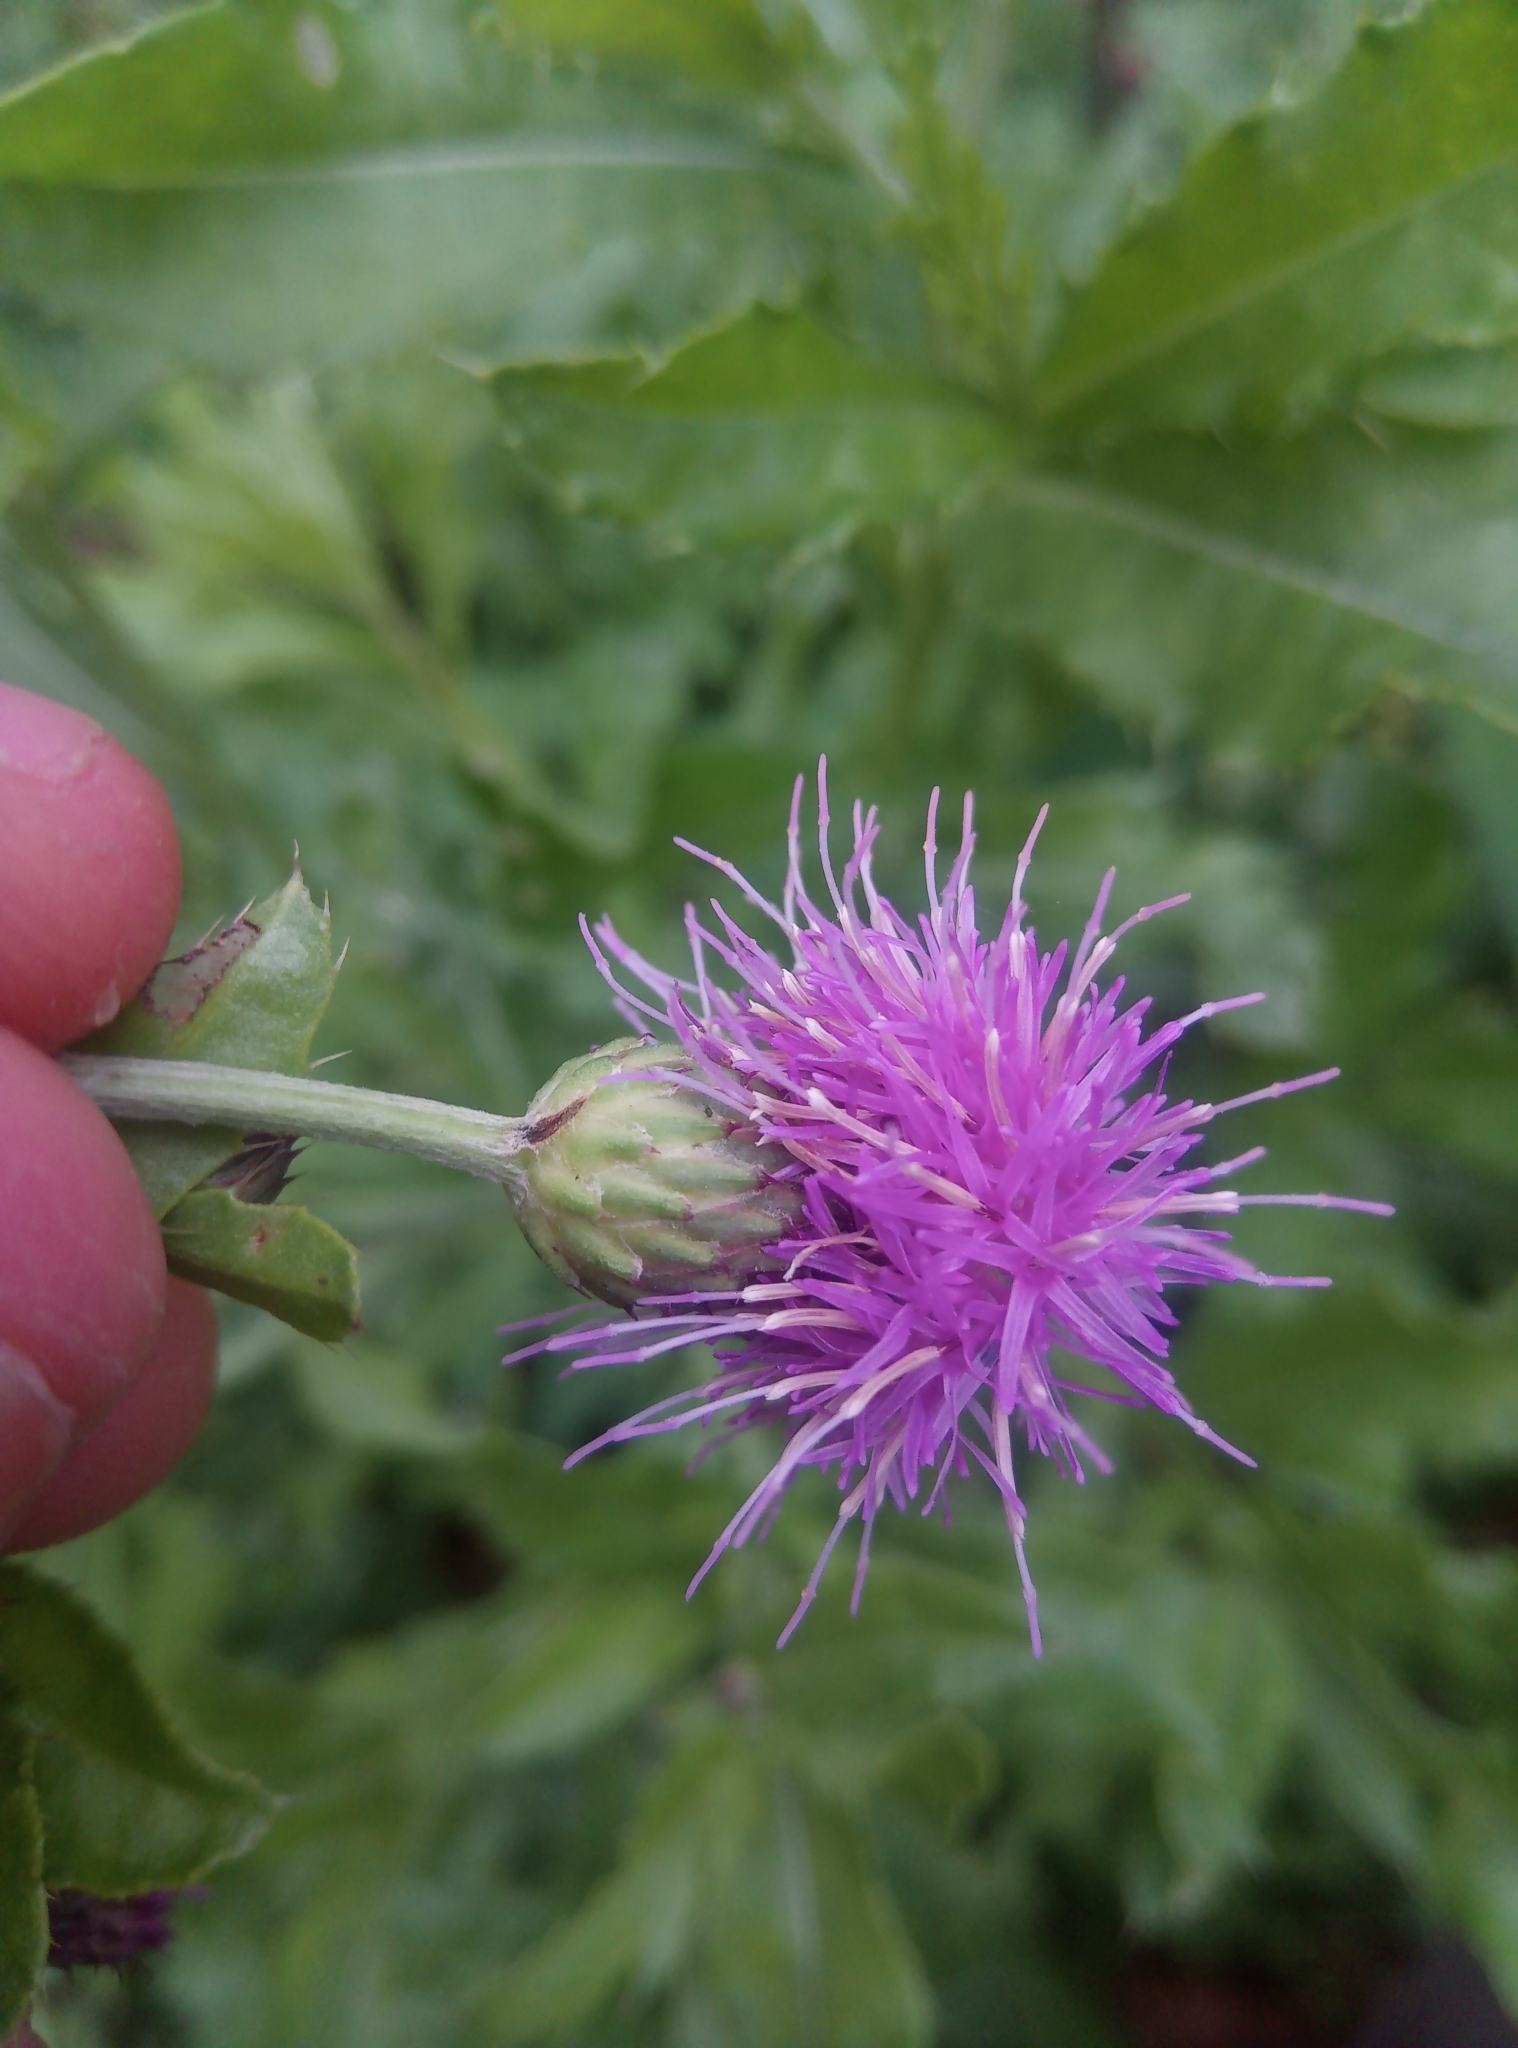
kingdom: Plantae
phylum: Tracheophyta
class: Magnoliopsida
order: Asterales
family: Asteraceae
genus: Cirsium
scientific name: Cirsium arvense
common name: Creeping thistle
